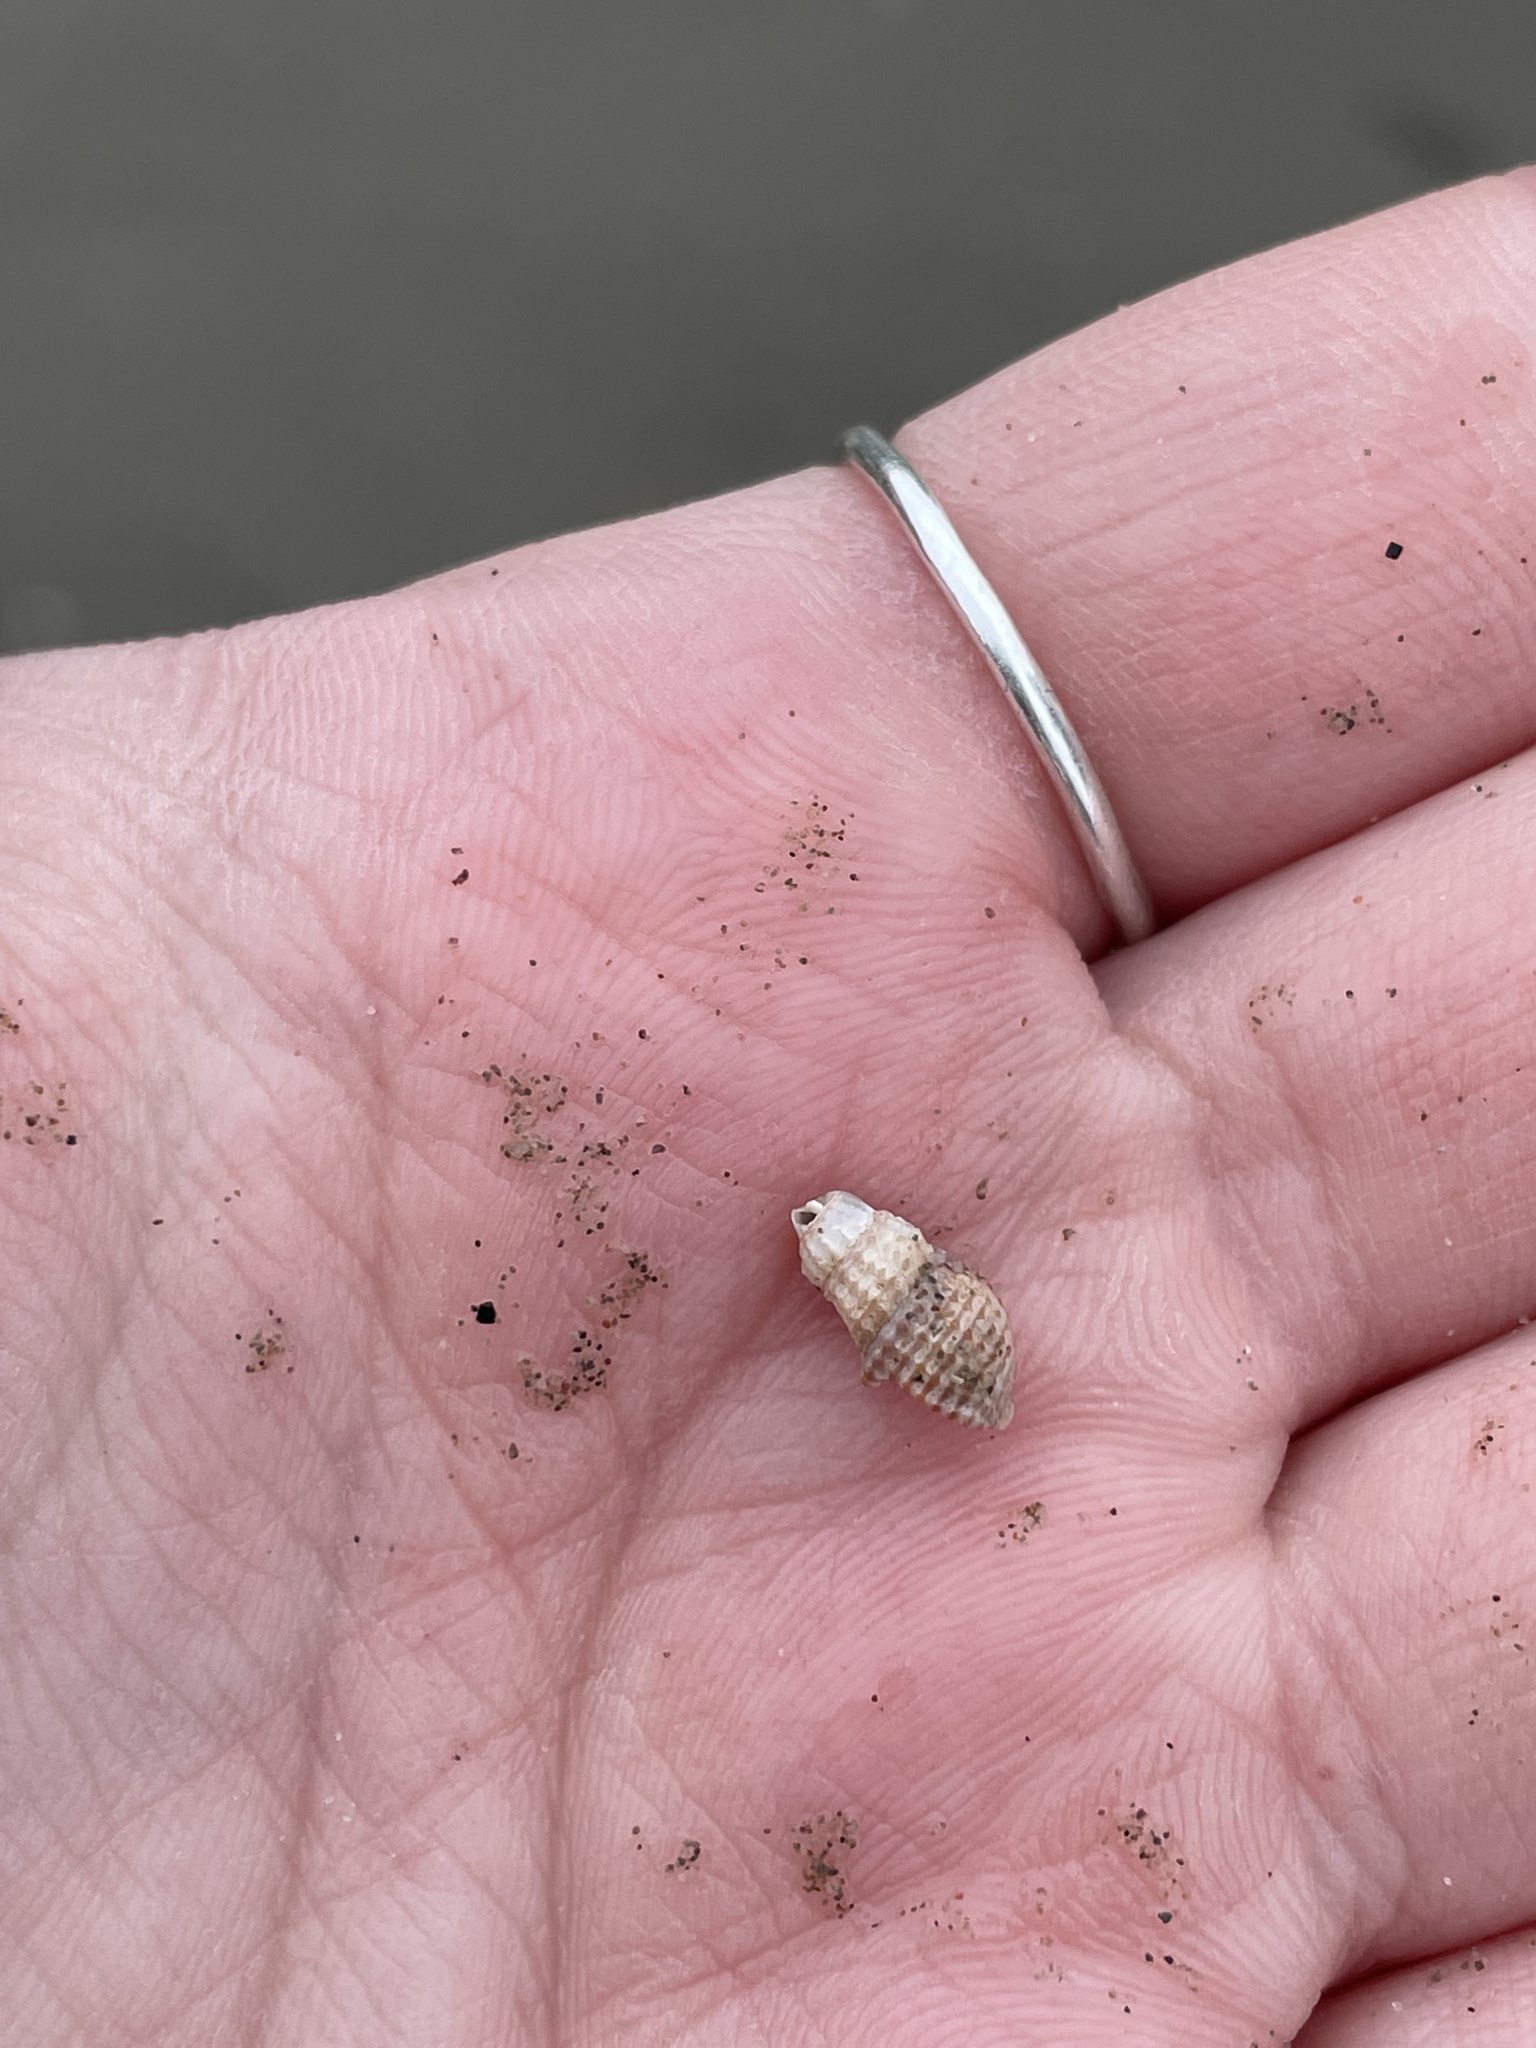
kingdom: Animalia
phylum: Mollusca
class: Gastropoda
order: Neogastropoda
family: Nassariidae
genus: Ilyanassa
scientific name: Ilyanassa trivittata
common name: Three-line mudsnail
